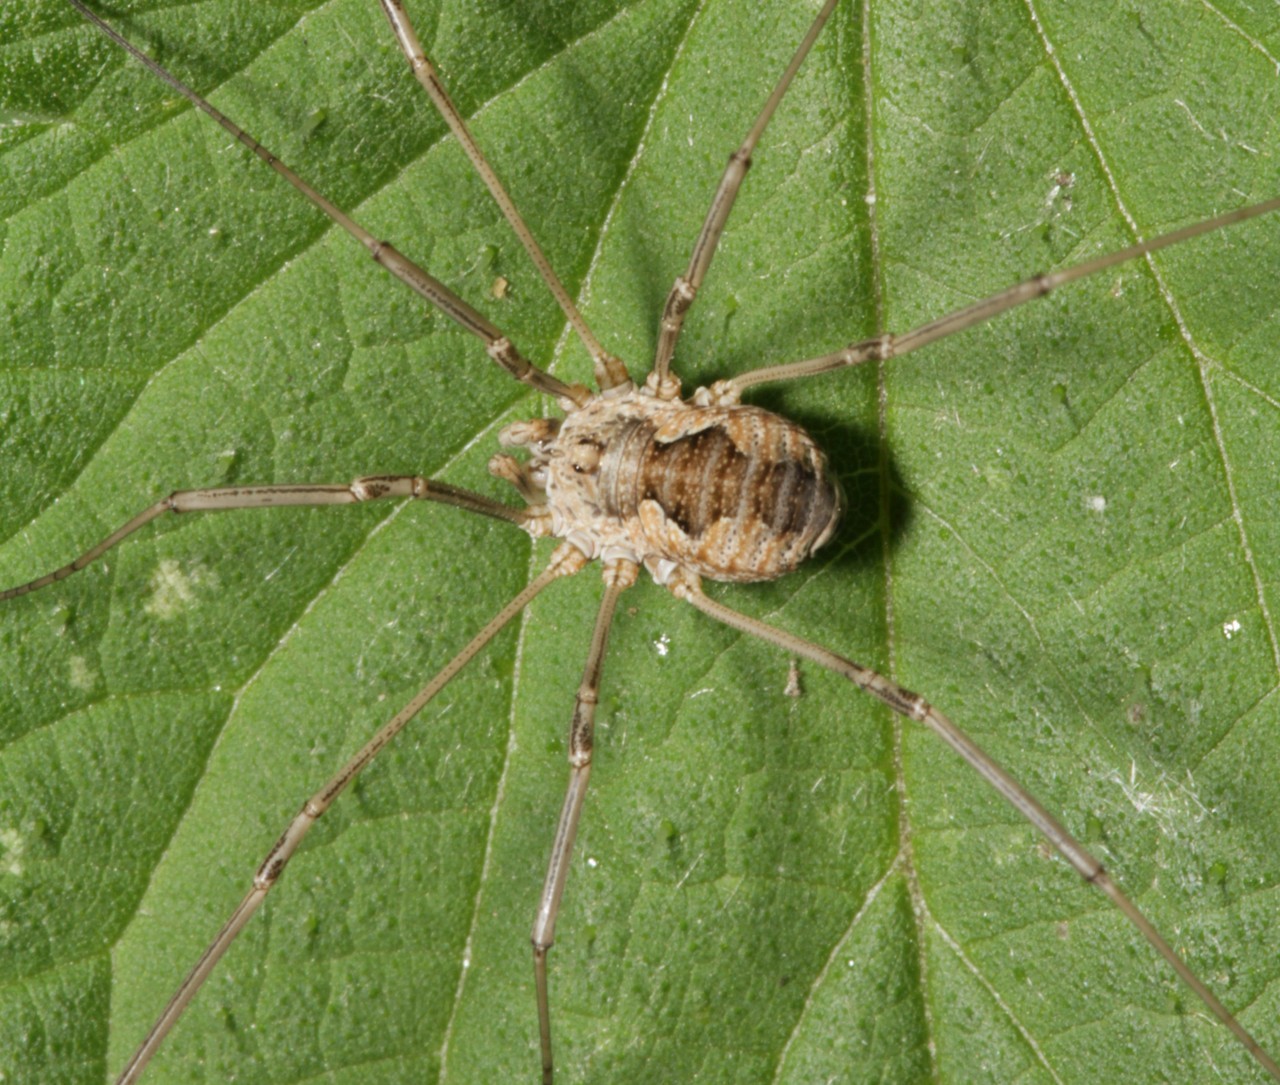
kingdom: Animalia
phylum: Arthropoda
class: Arachnida
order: Opiliones
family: Phalangiidae
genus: Phalangium
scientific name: Phalangium opilio
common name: Daddy longleg
